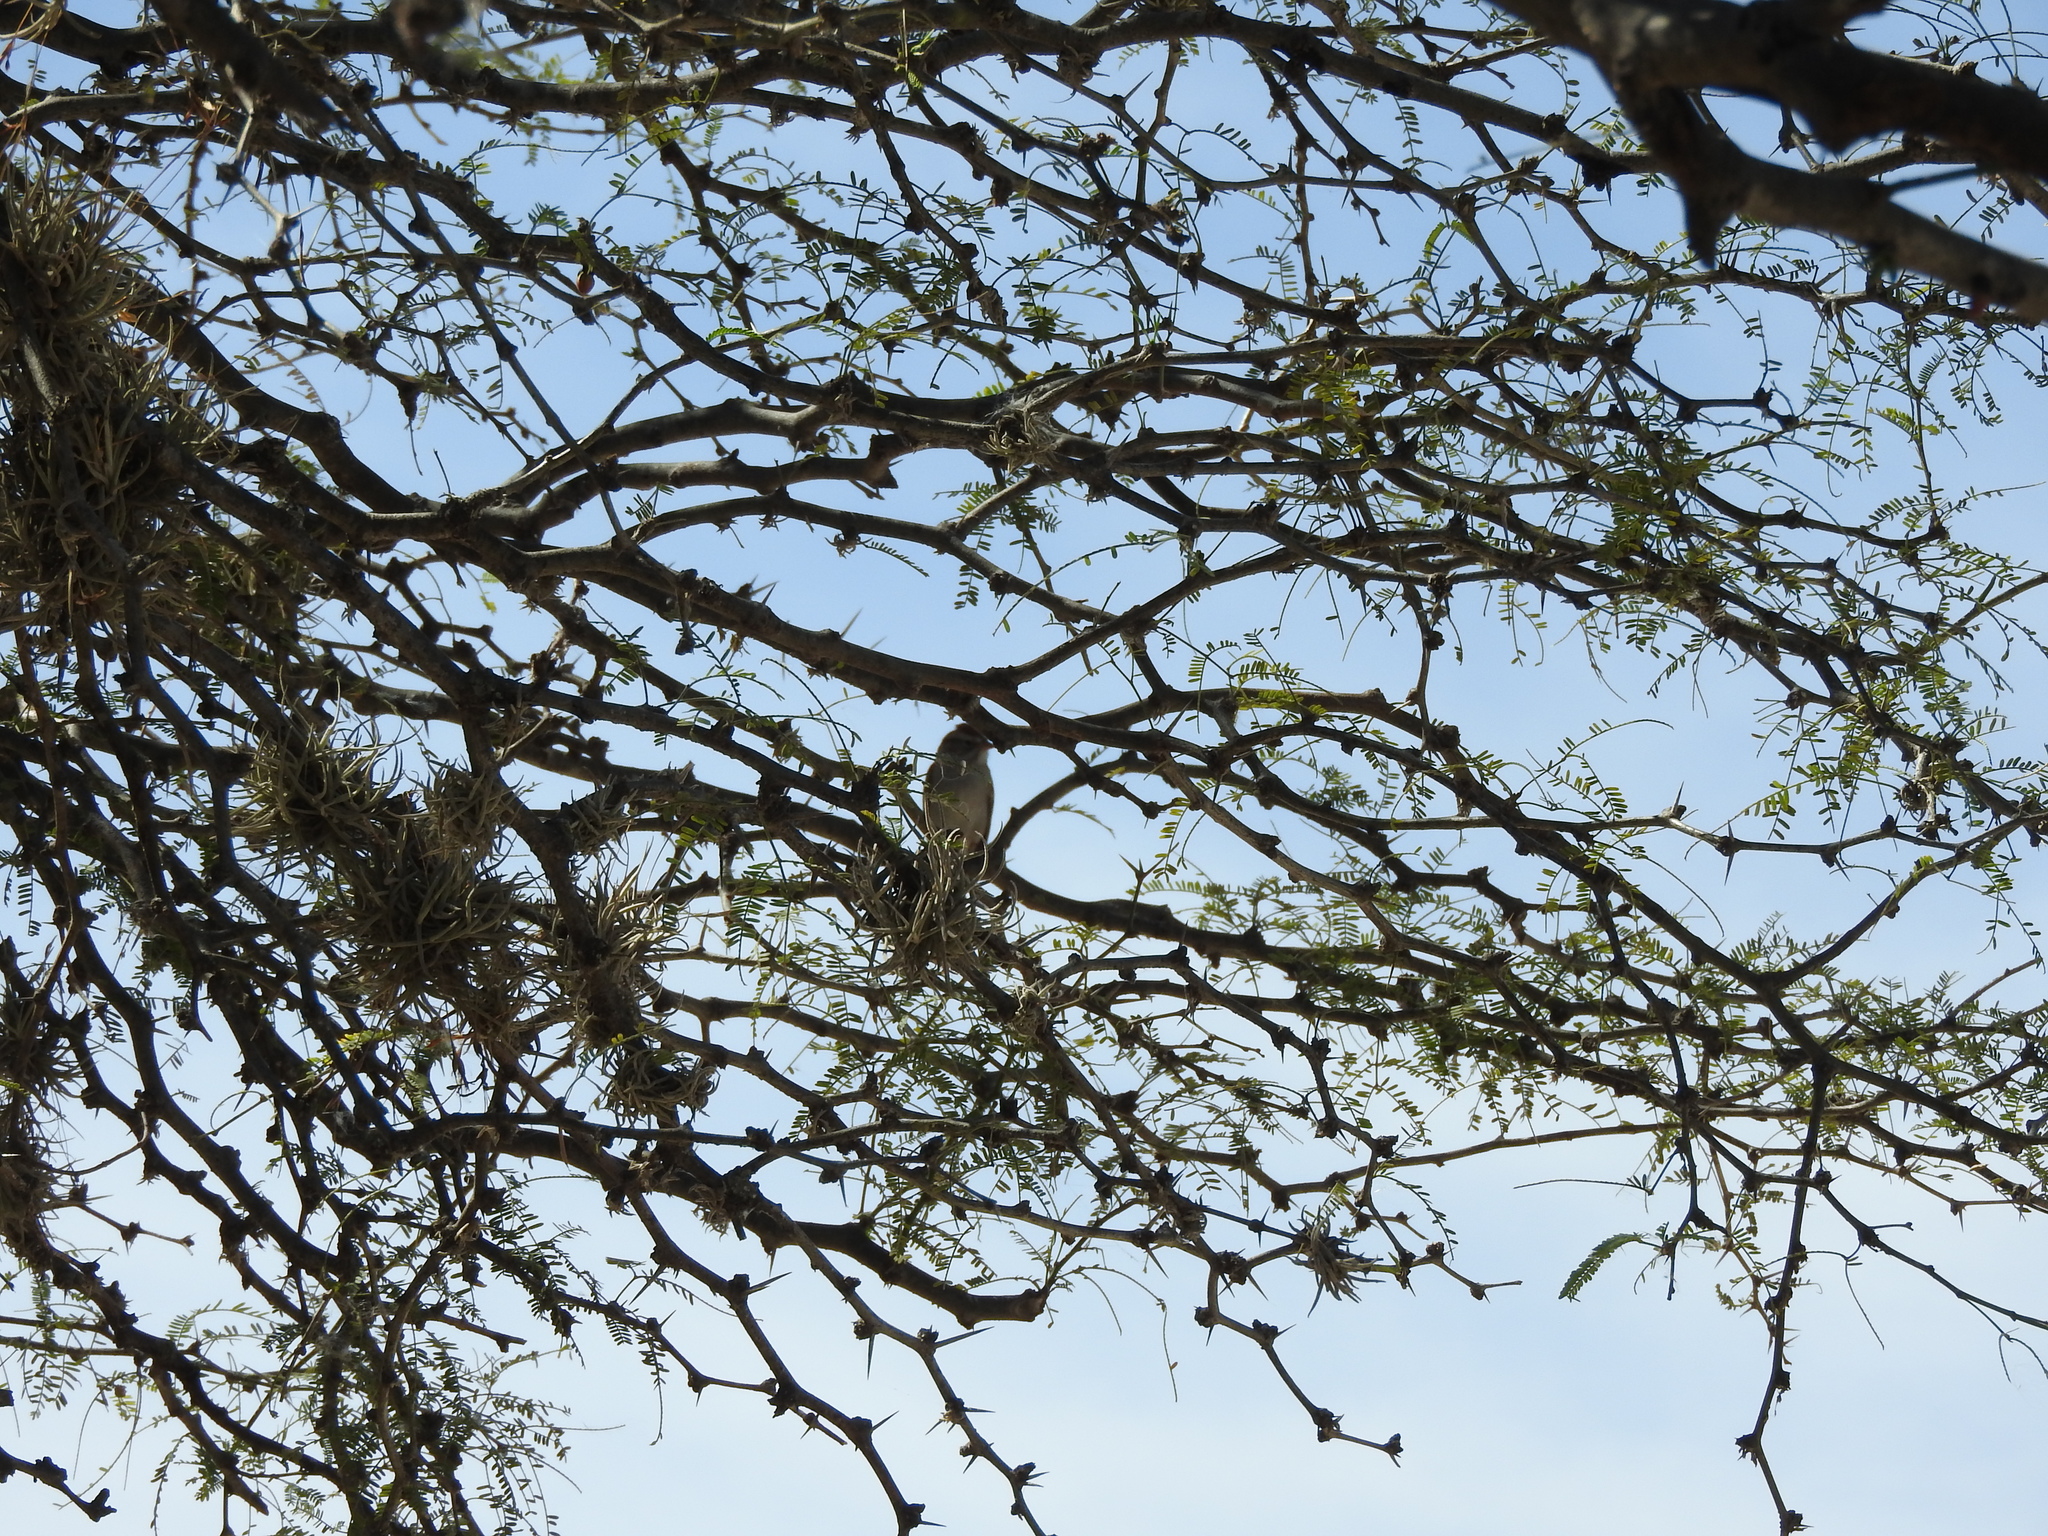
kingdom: Animalia
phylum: Chordata
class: Aves
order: Passeriformes
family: Passerellidae
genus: Spizella
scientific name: Spizella passerina
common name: Chipping sparrow
